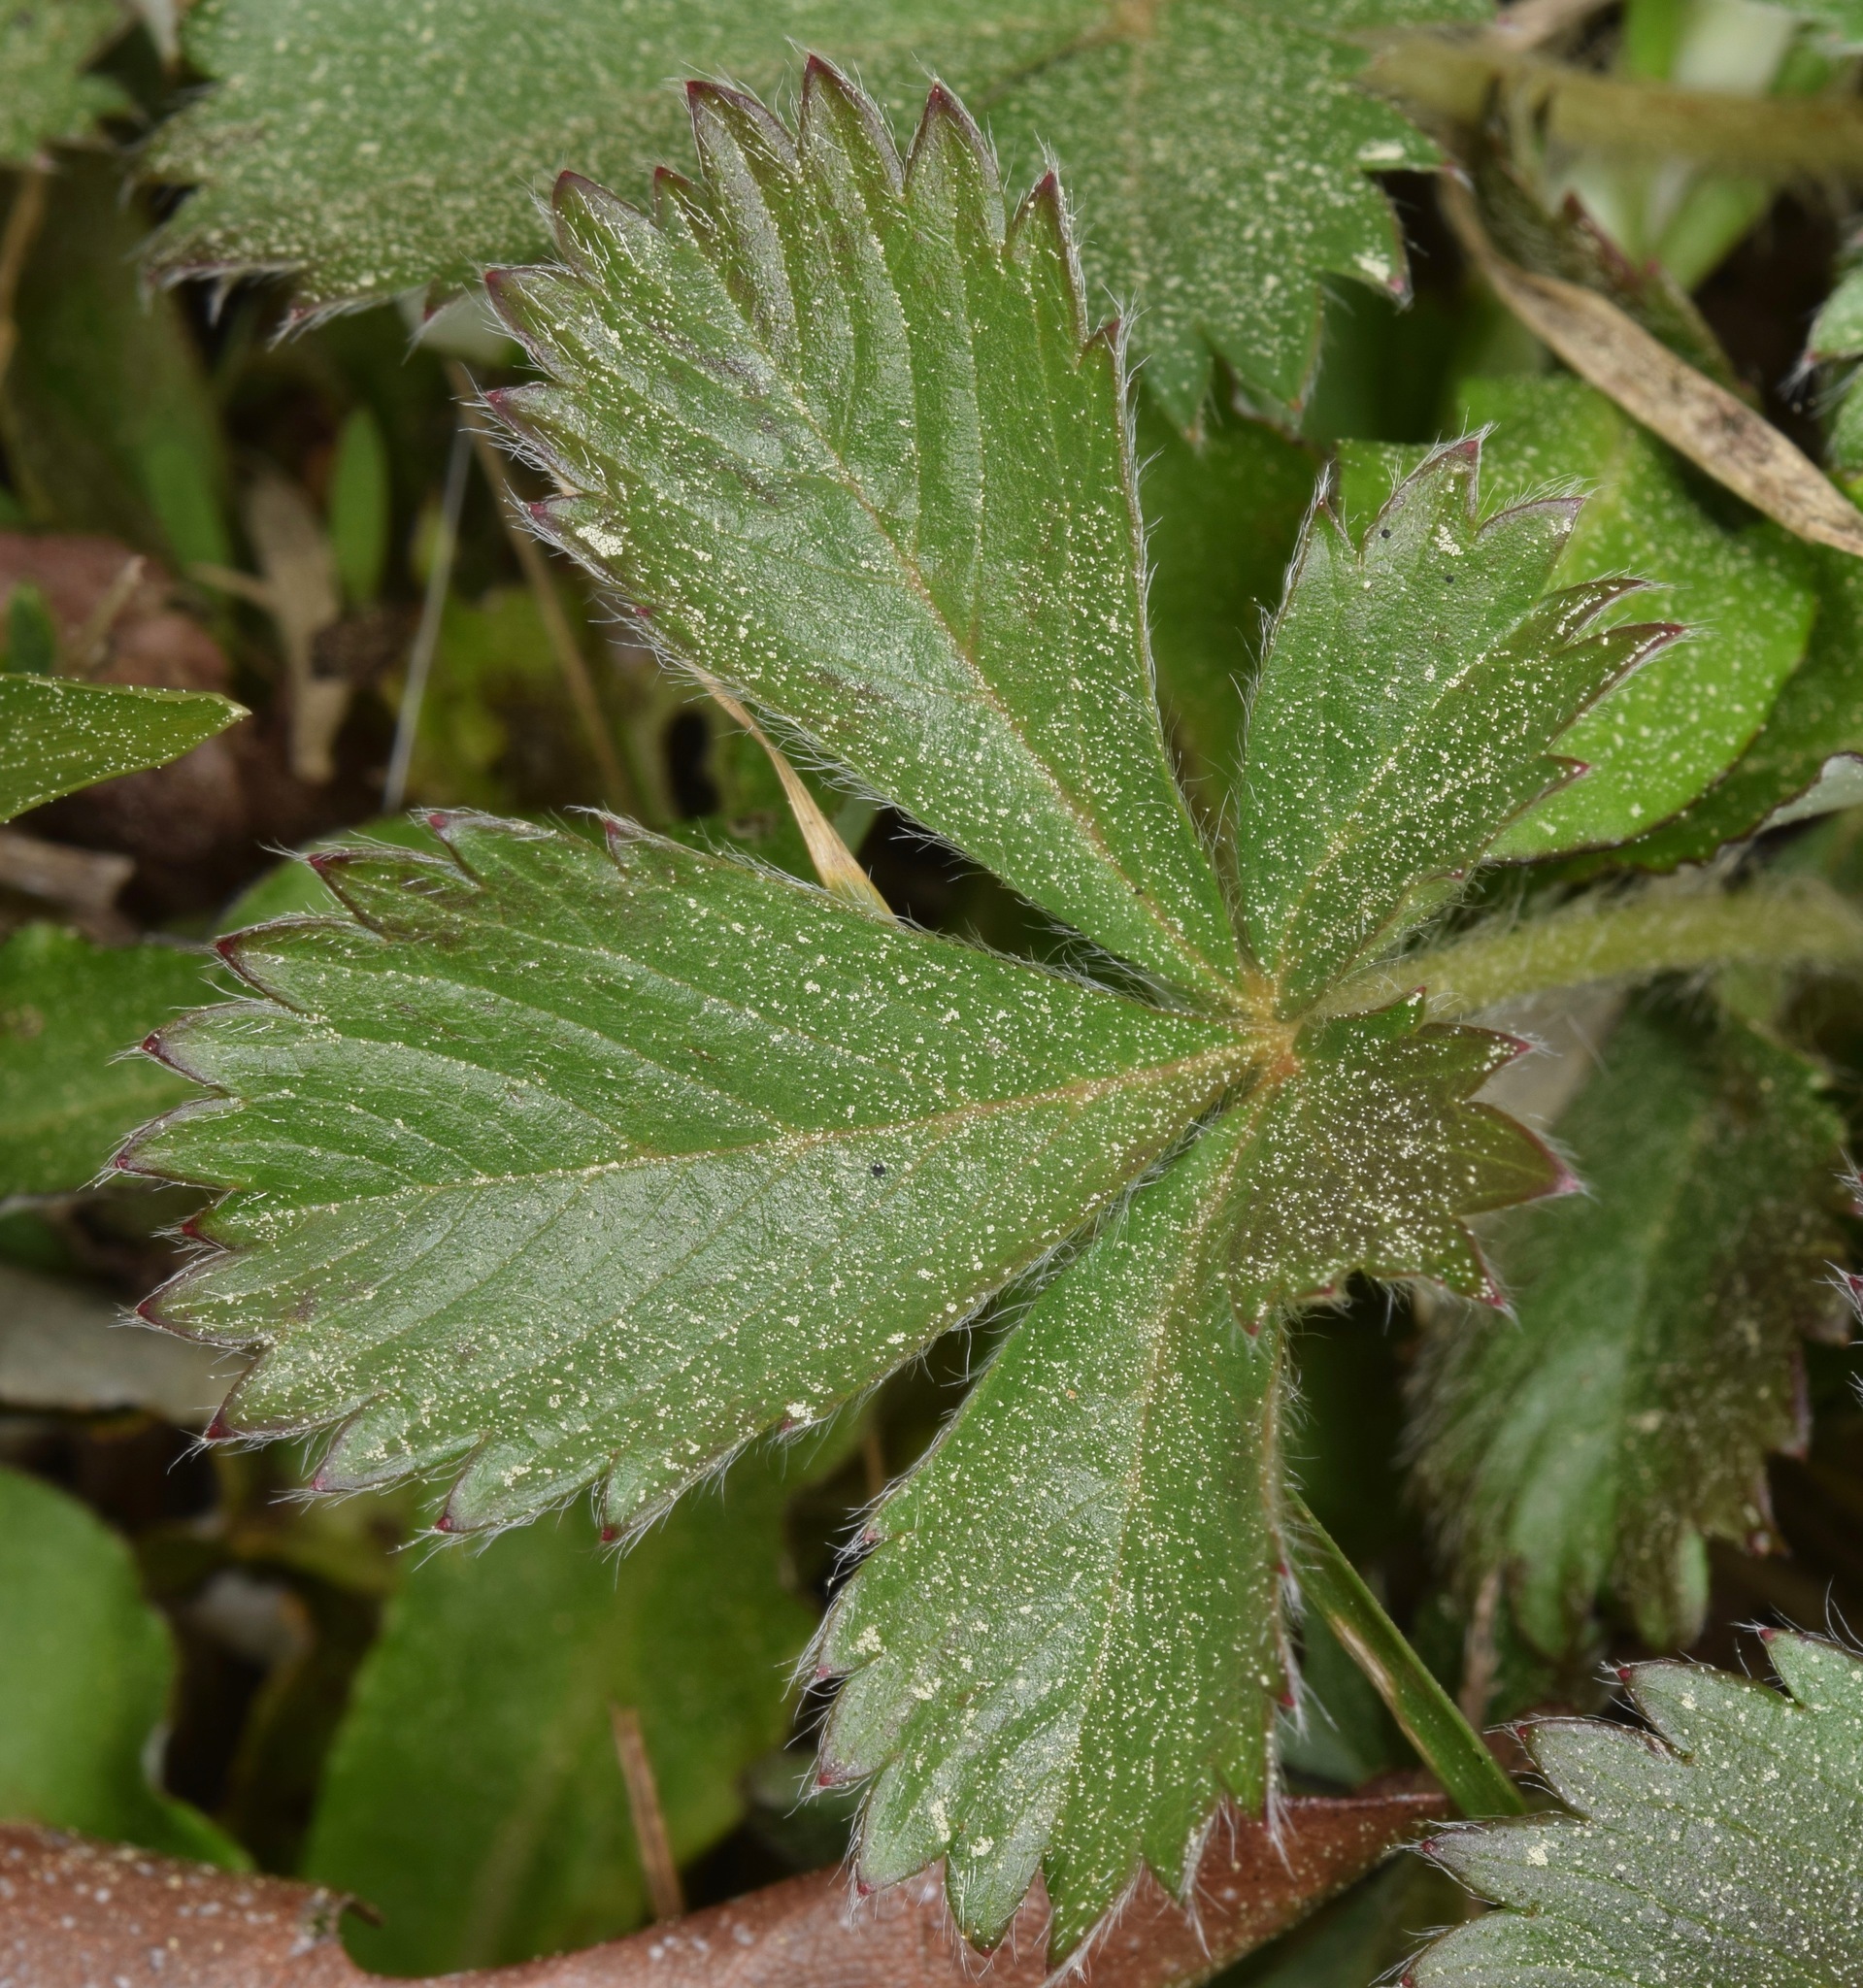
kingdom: Plantae
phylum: Tracheophyta
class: Magnoliopsida
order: Rosales
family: Rosaceae
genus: Potentilla
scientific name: Potentilla canadensis
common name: Canada cinquefoil
